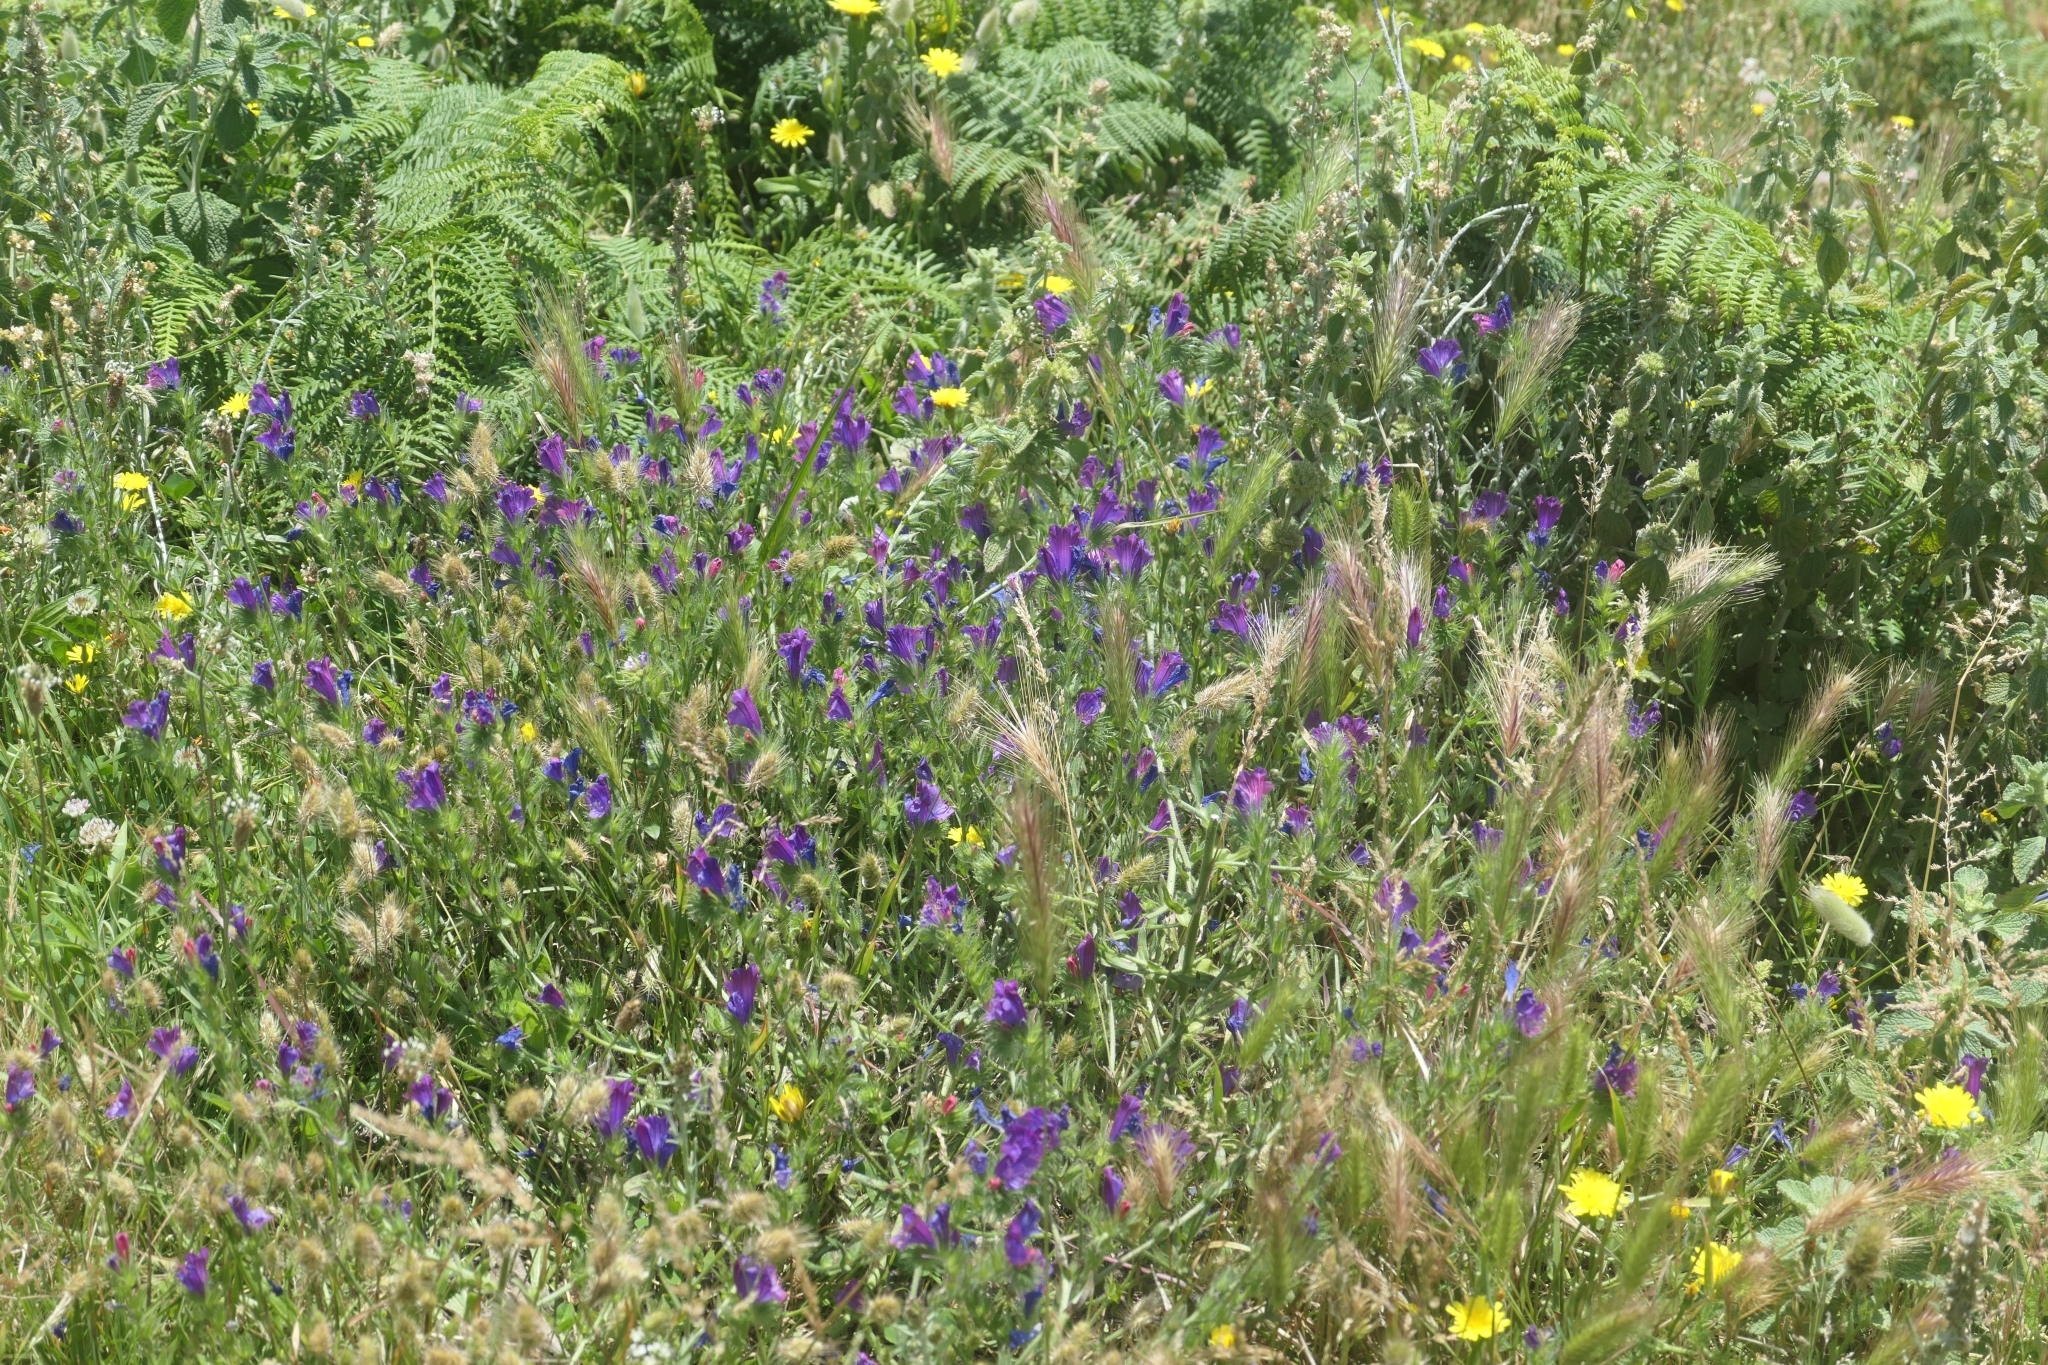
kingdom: Plantae
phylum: Tracheophyta
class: Magnoliopsida
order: Boraginales
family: Boraginaceae
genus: Echium
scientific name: Echium plantagineum
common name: Purple viper's-bugloss
